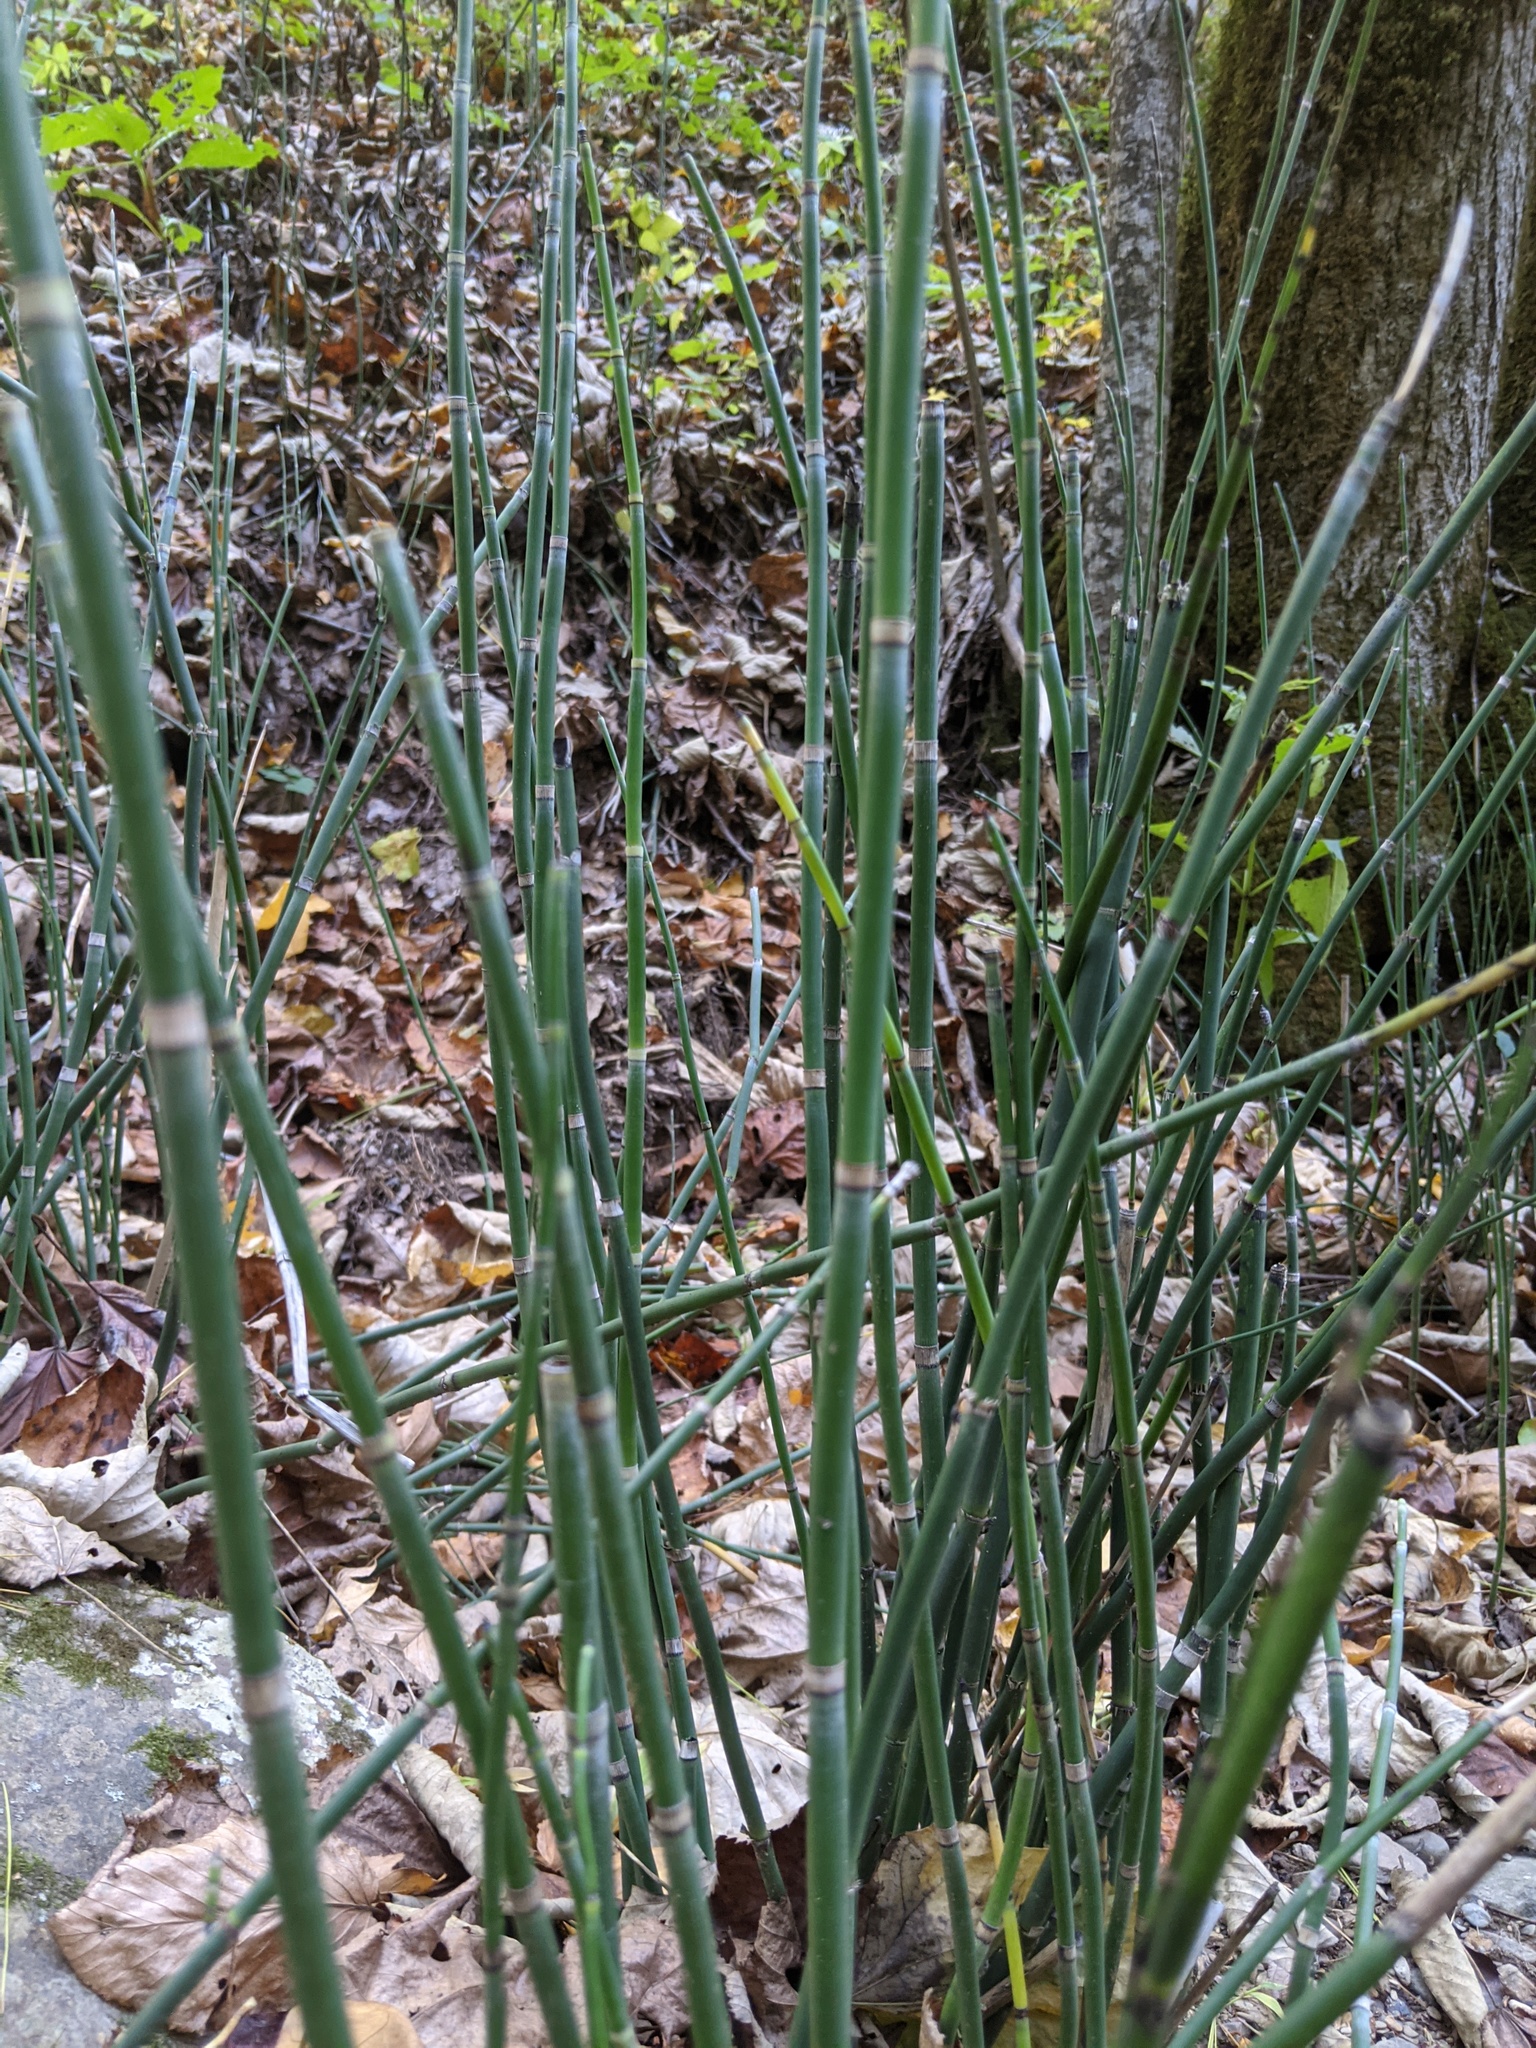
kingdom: Plantae
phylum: Tracheophyta
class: Polypodiopsida
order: Equisetales
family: Equisetaceae
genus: Equisetum
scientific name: Equisetum hyemale
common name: Rough horsetail
